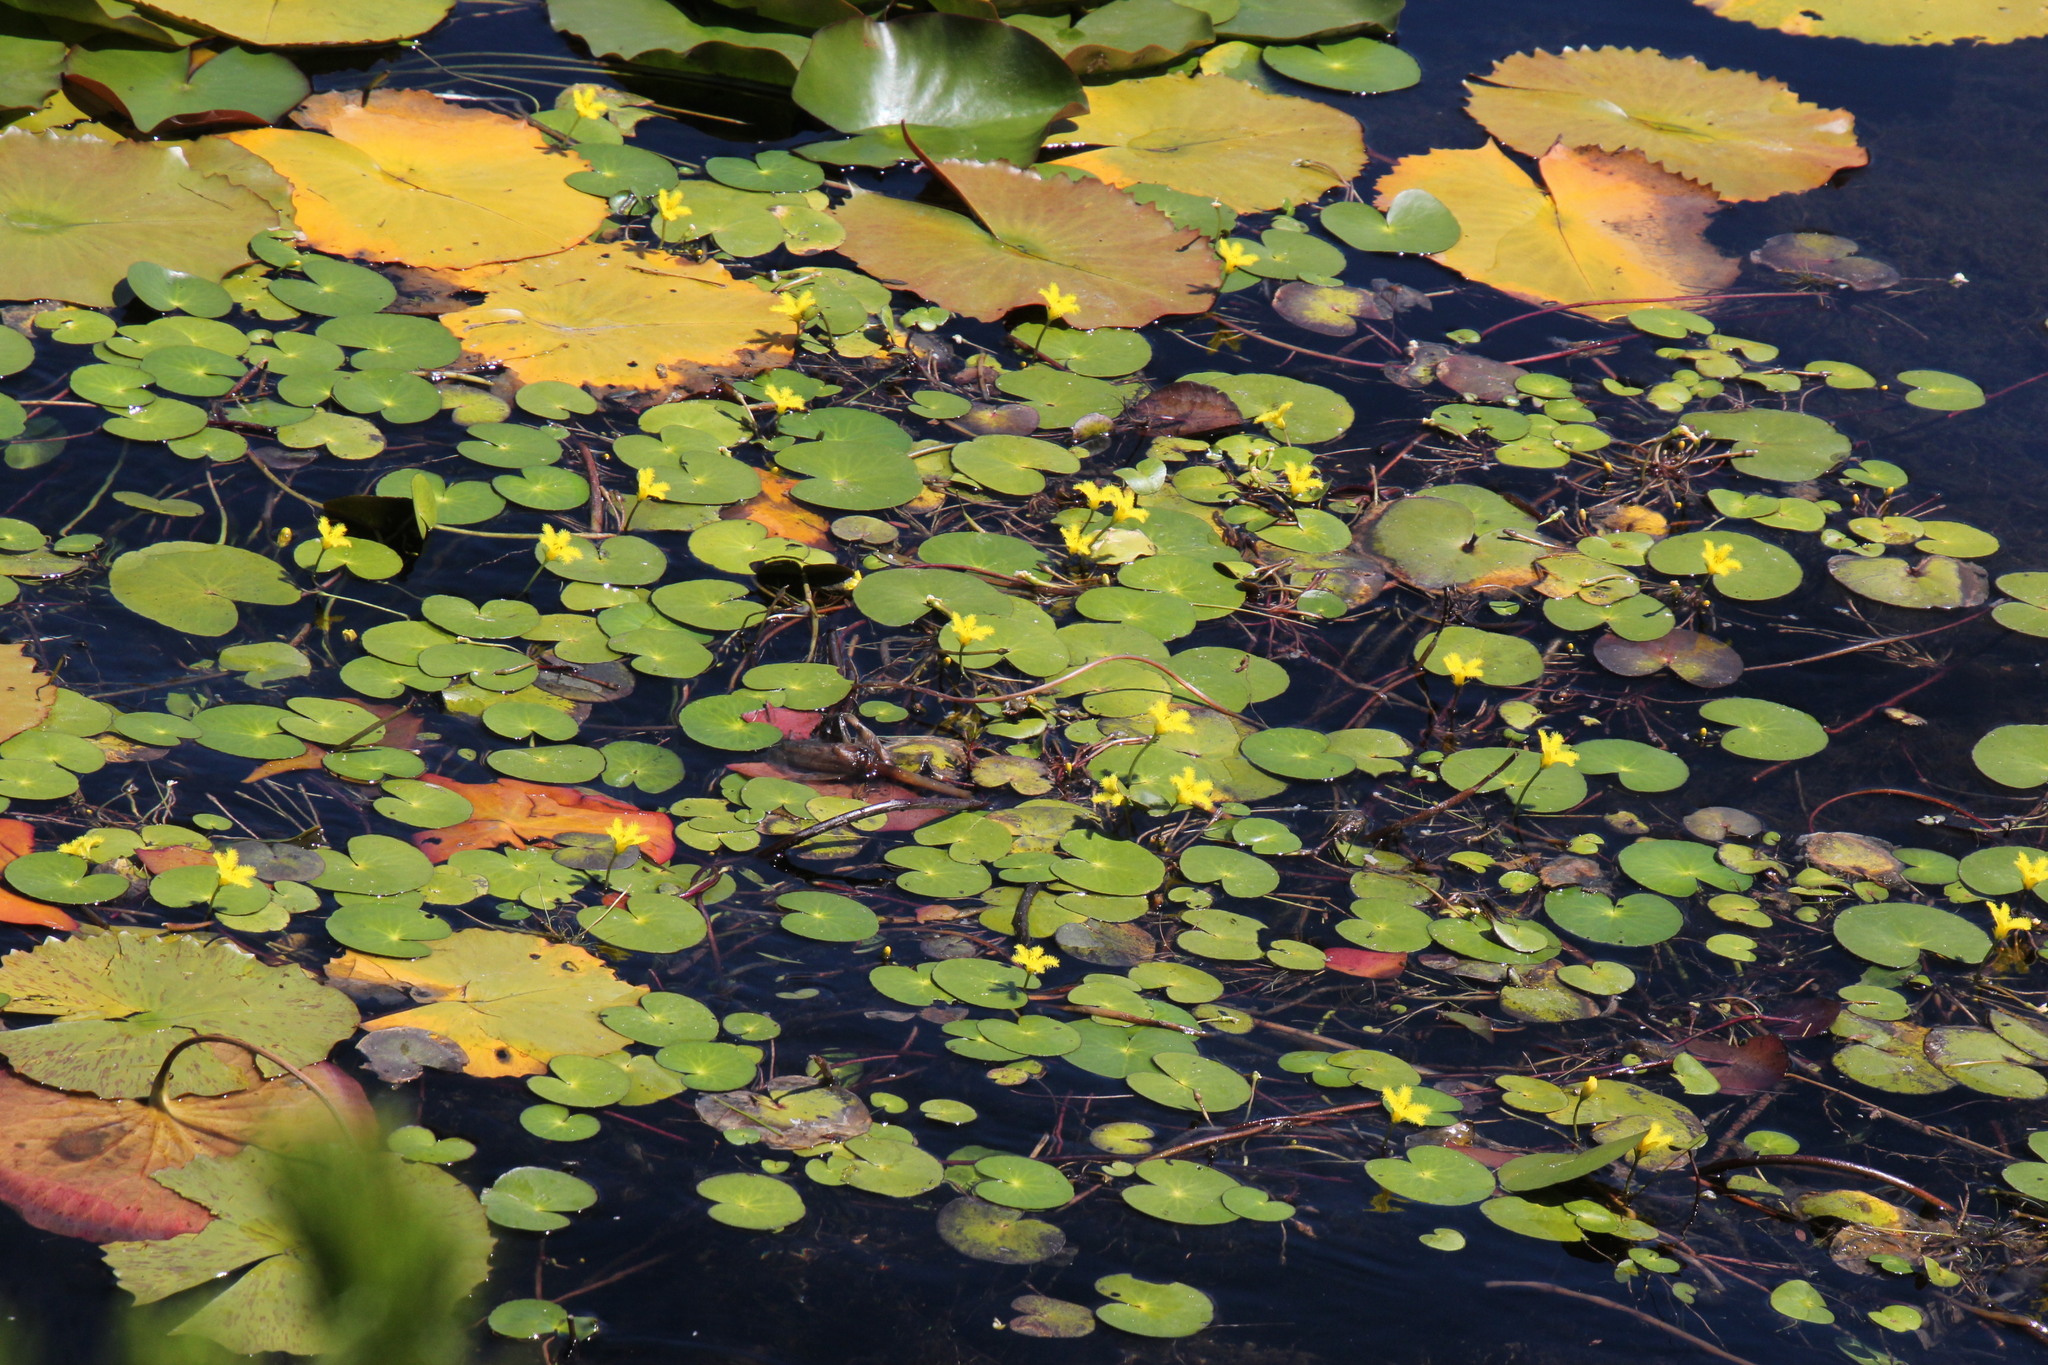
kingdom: Plantae
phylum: Tracheophyta
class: Magnoliopsida
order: Asterales
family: Menyanthaceae
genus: Nymphoides
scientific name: Nymphoides thunbergiana
